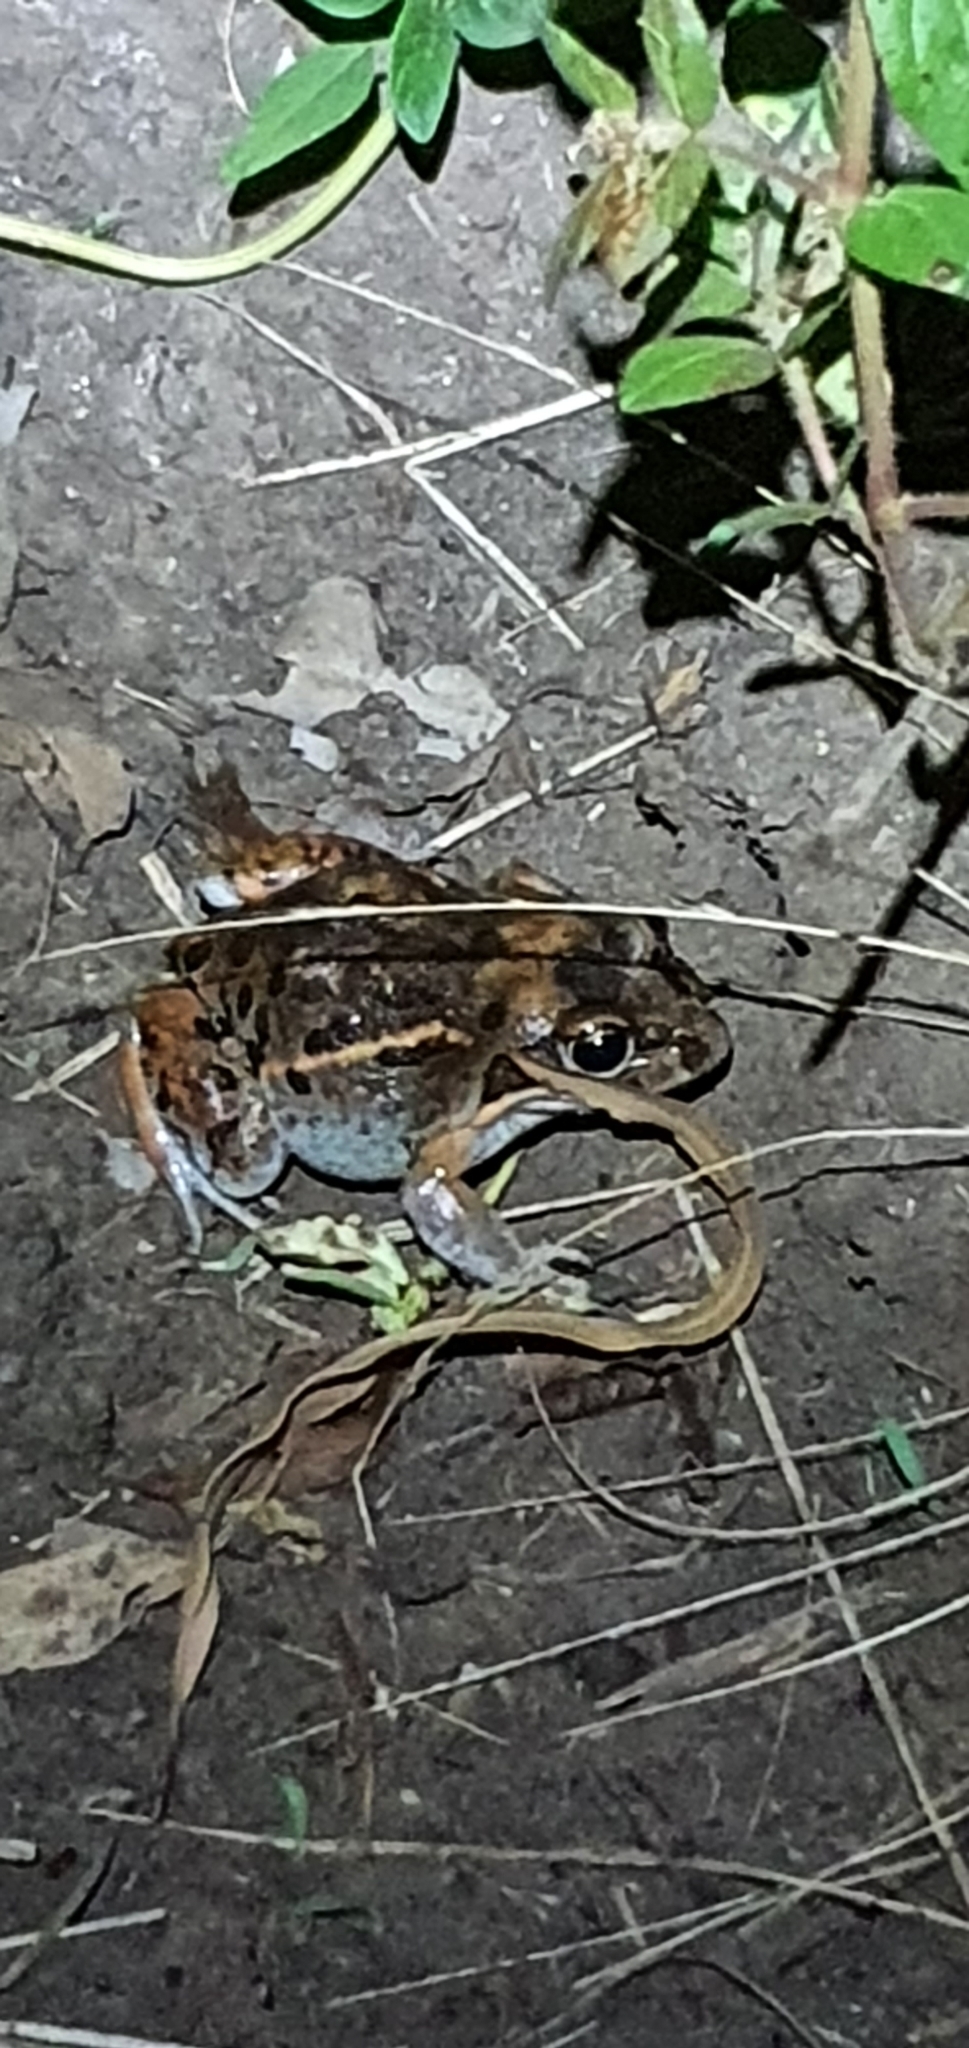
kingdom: Animalia
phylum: Chordata
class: Amphibia
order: Anura
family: Limnodynastidae
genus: Limnodynastes
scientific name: Limnodynastes salmini
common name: Salmon-striped frog
